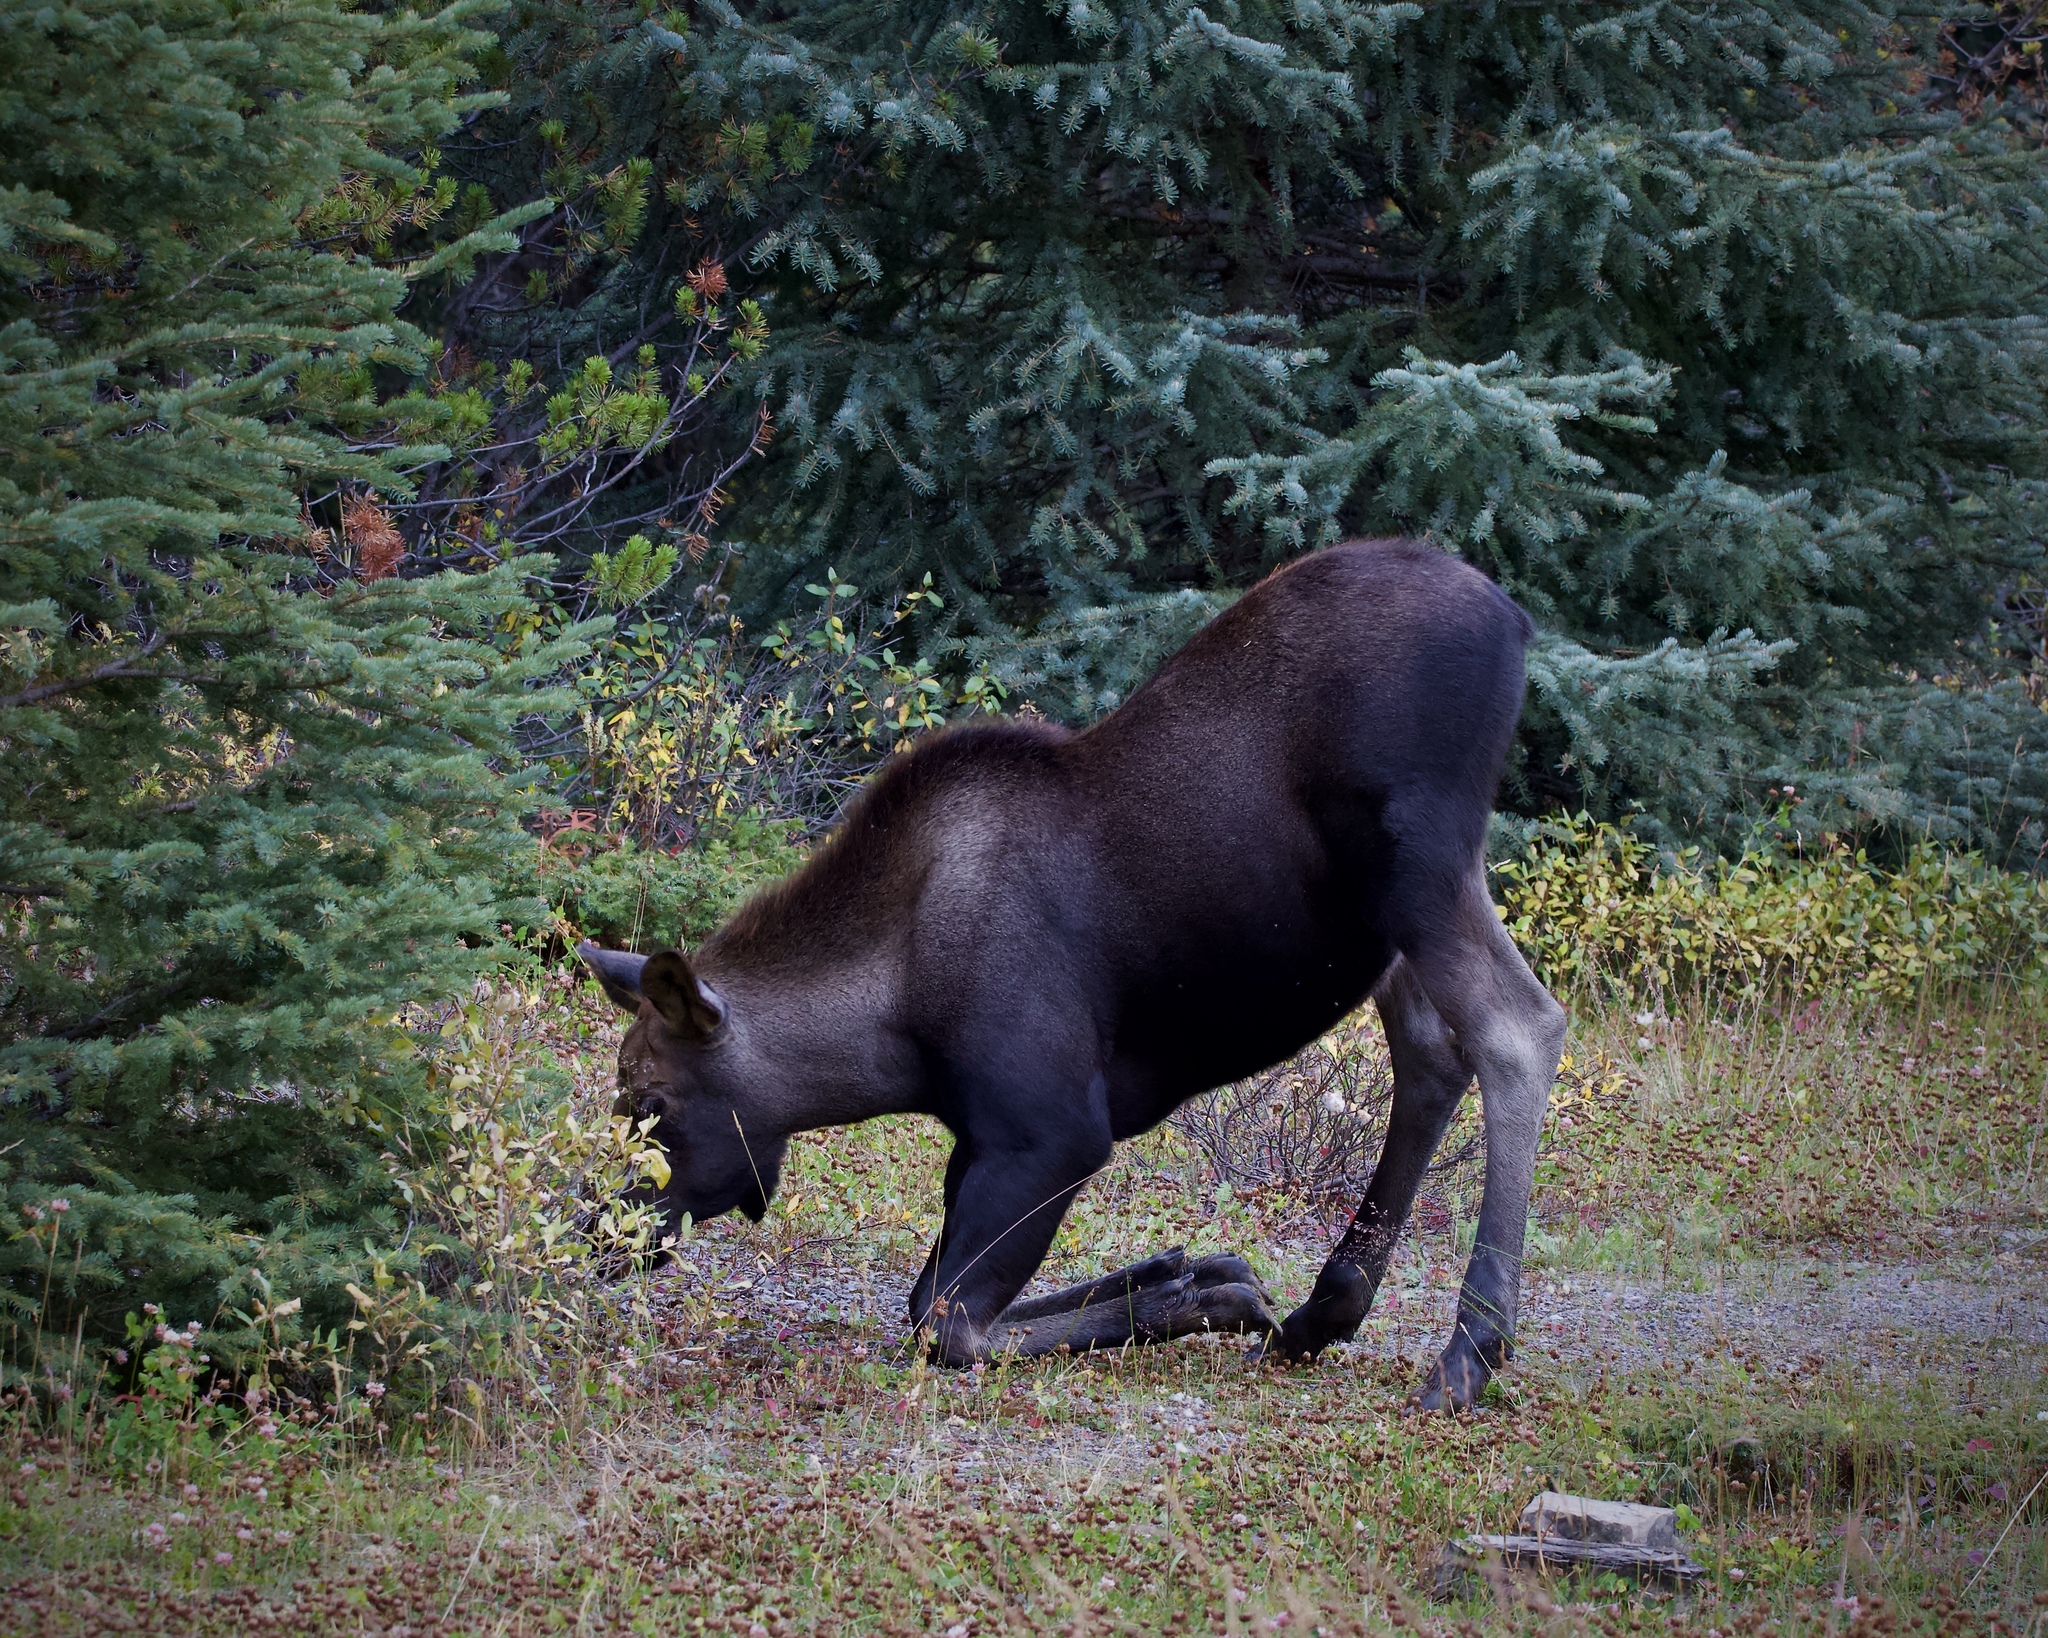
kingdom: Animalia
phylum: Chordata
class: Mammalia
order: Artiodactyla
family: Cervidae
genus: Alces
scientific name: Alces americanus
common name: Moose
